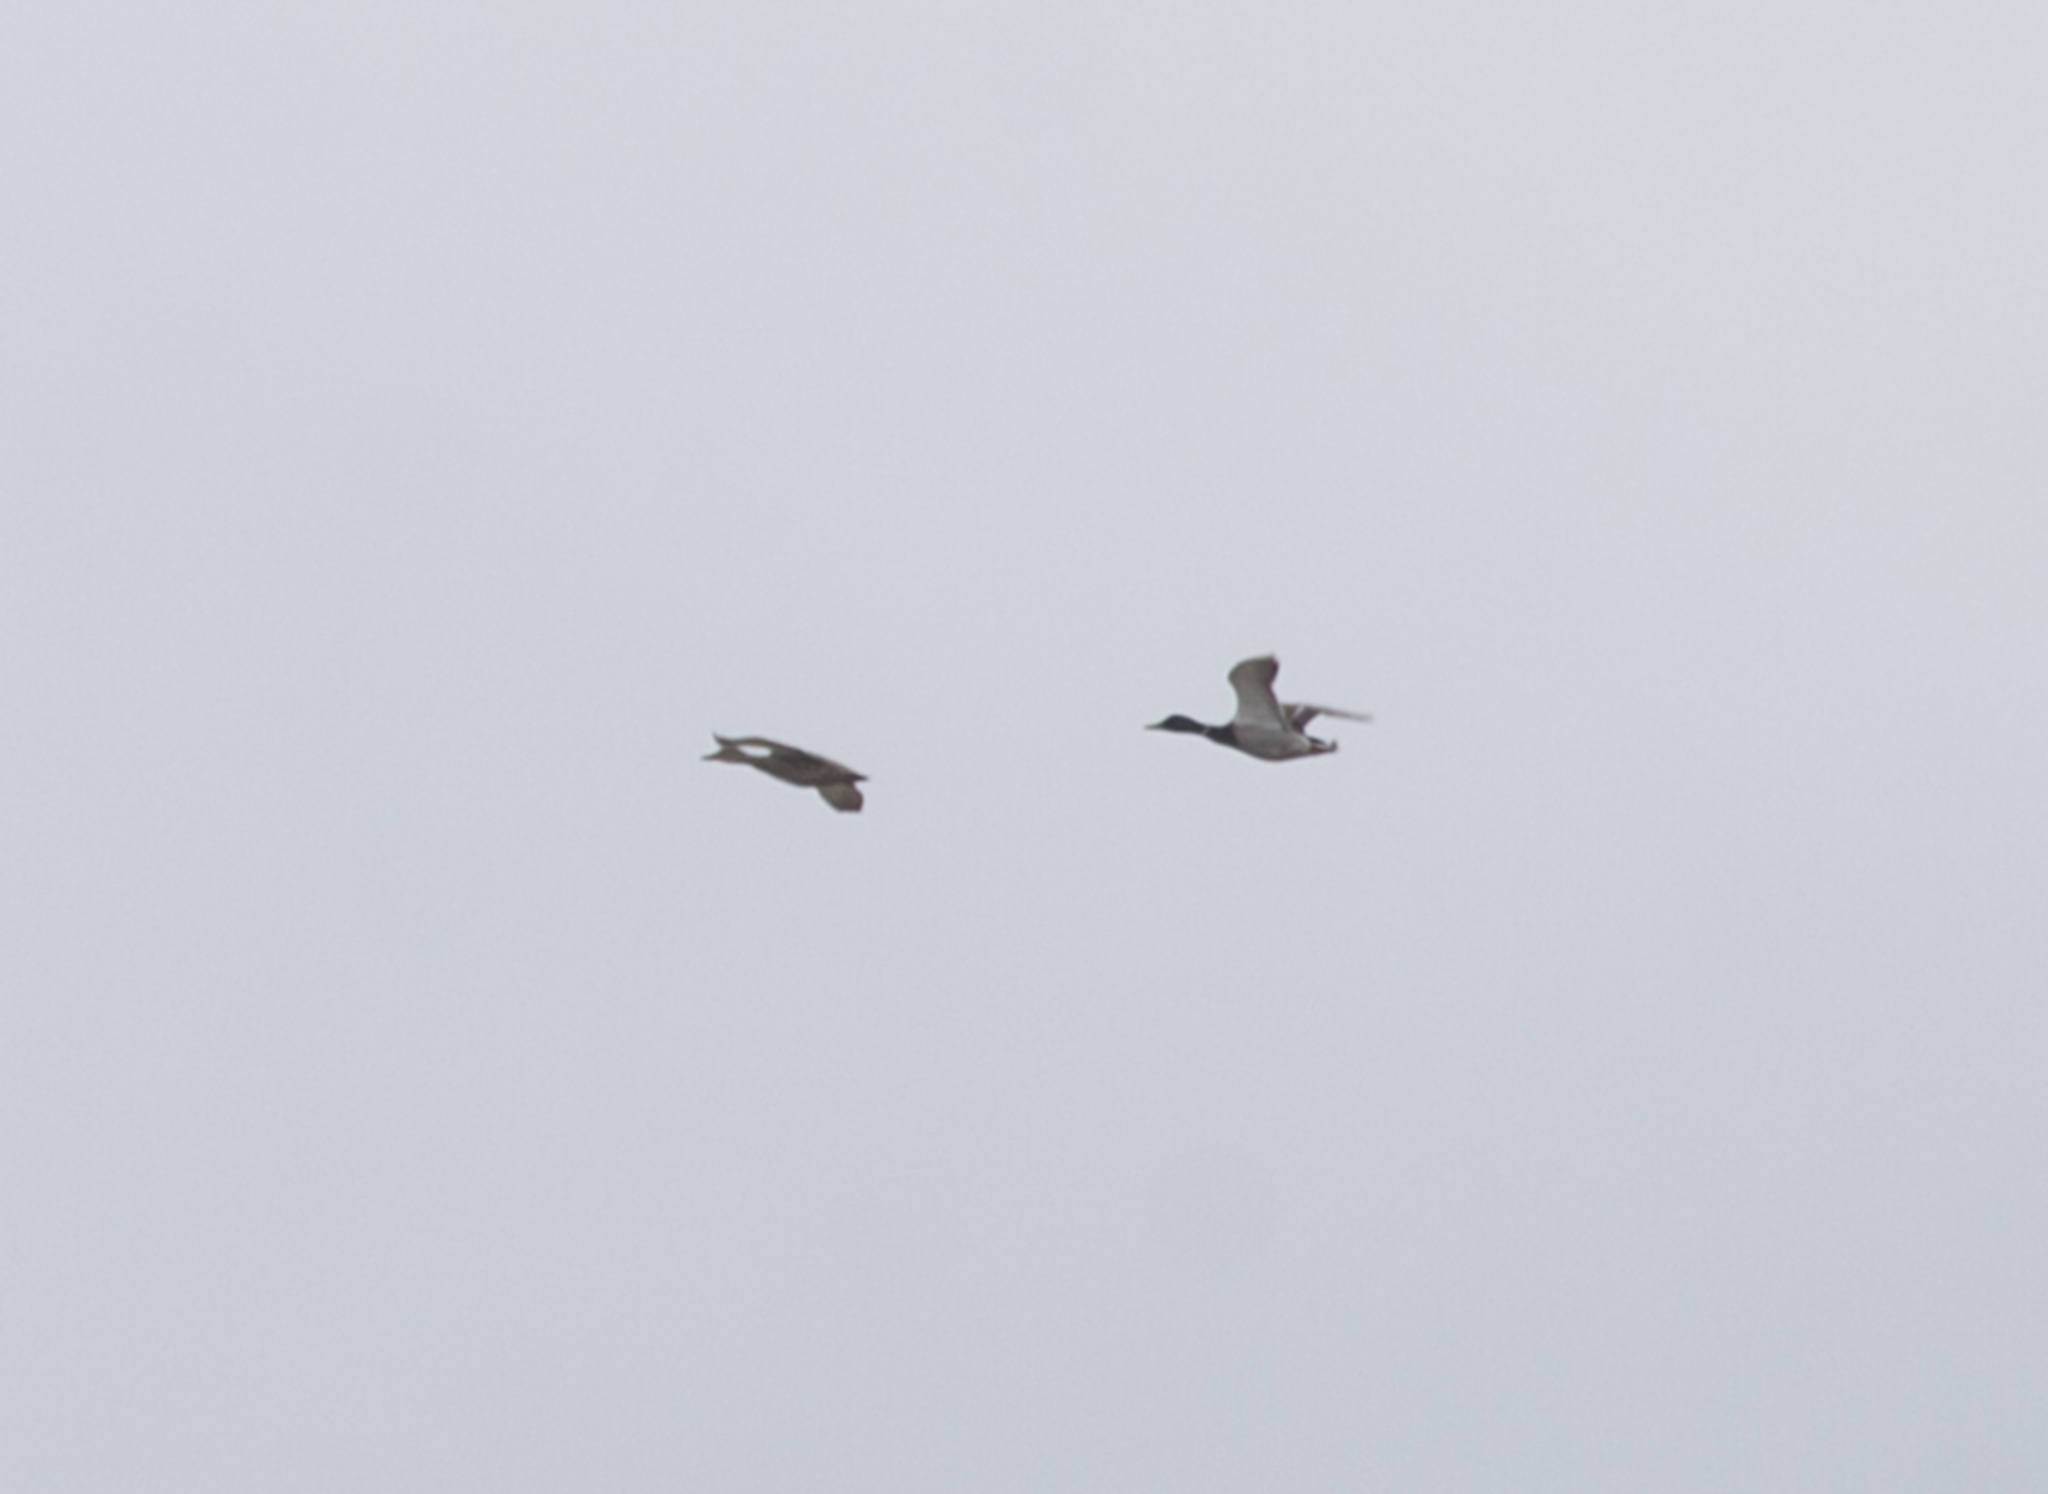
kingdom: Animalia
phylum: Chordata
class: Aves
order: Anseriformes
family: Anatidae
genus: Anas
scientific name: Anas platyrhynchos
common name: Mallard
